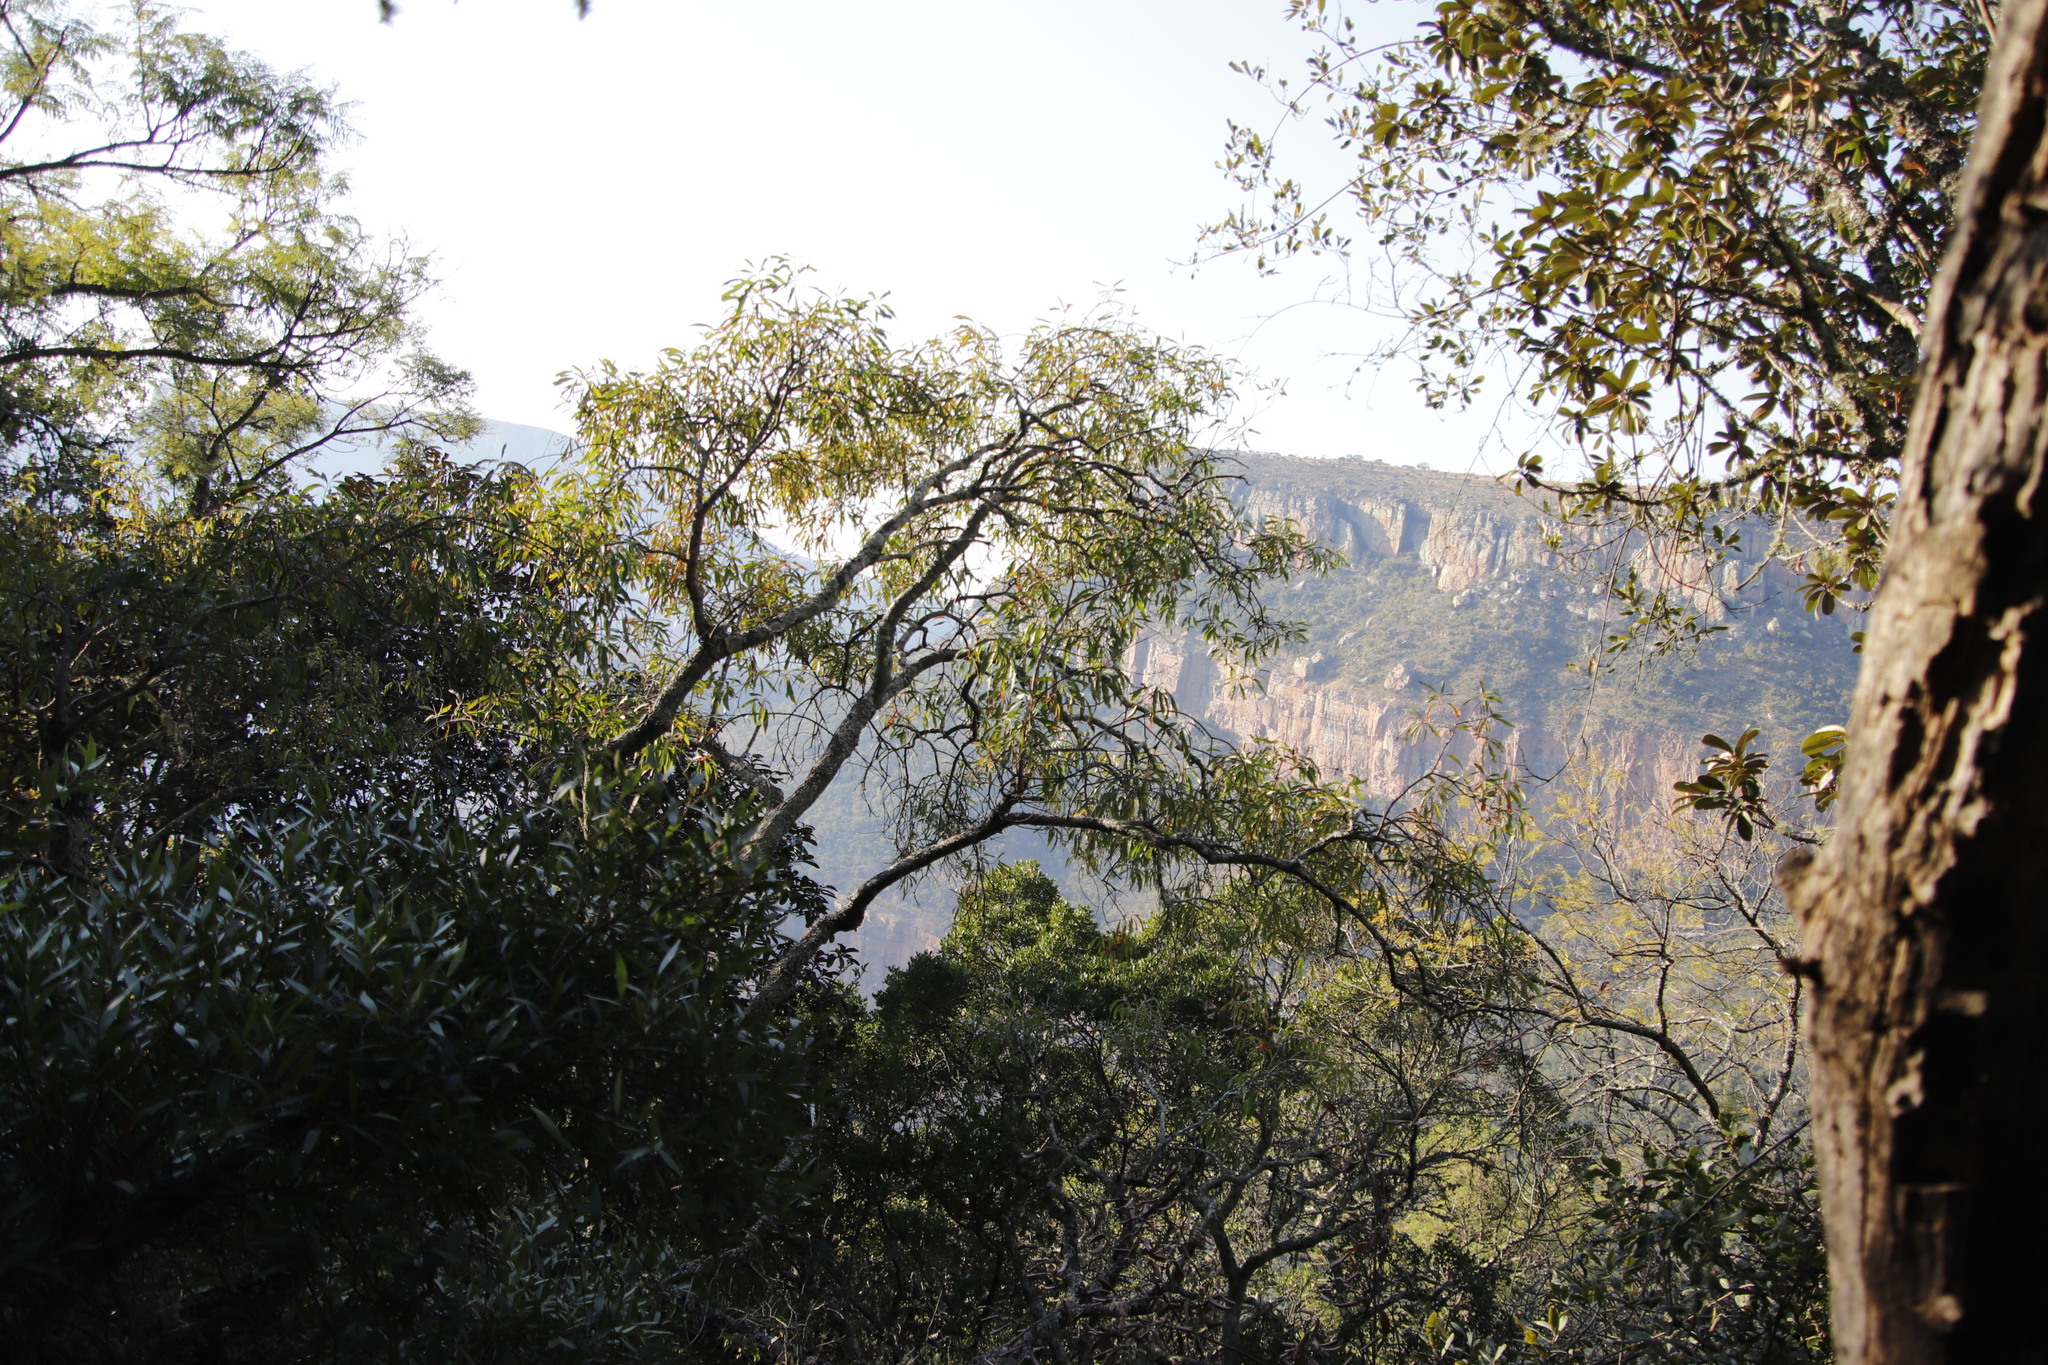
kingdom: Plantae
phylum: Tracheophyta
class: Magnoliopsida
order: Proteales
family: Proteaceae
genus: Faurea
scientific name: Faurea saligna
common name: African bean
